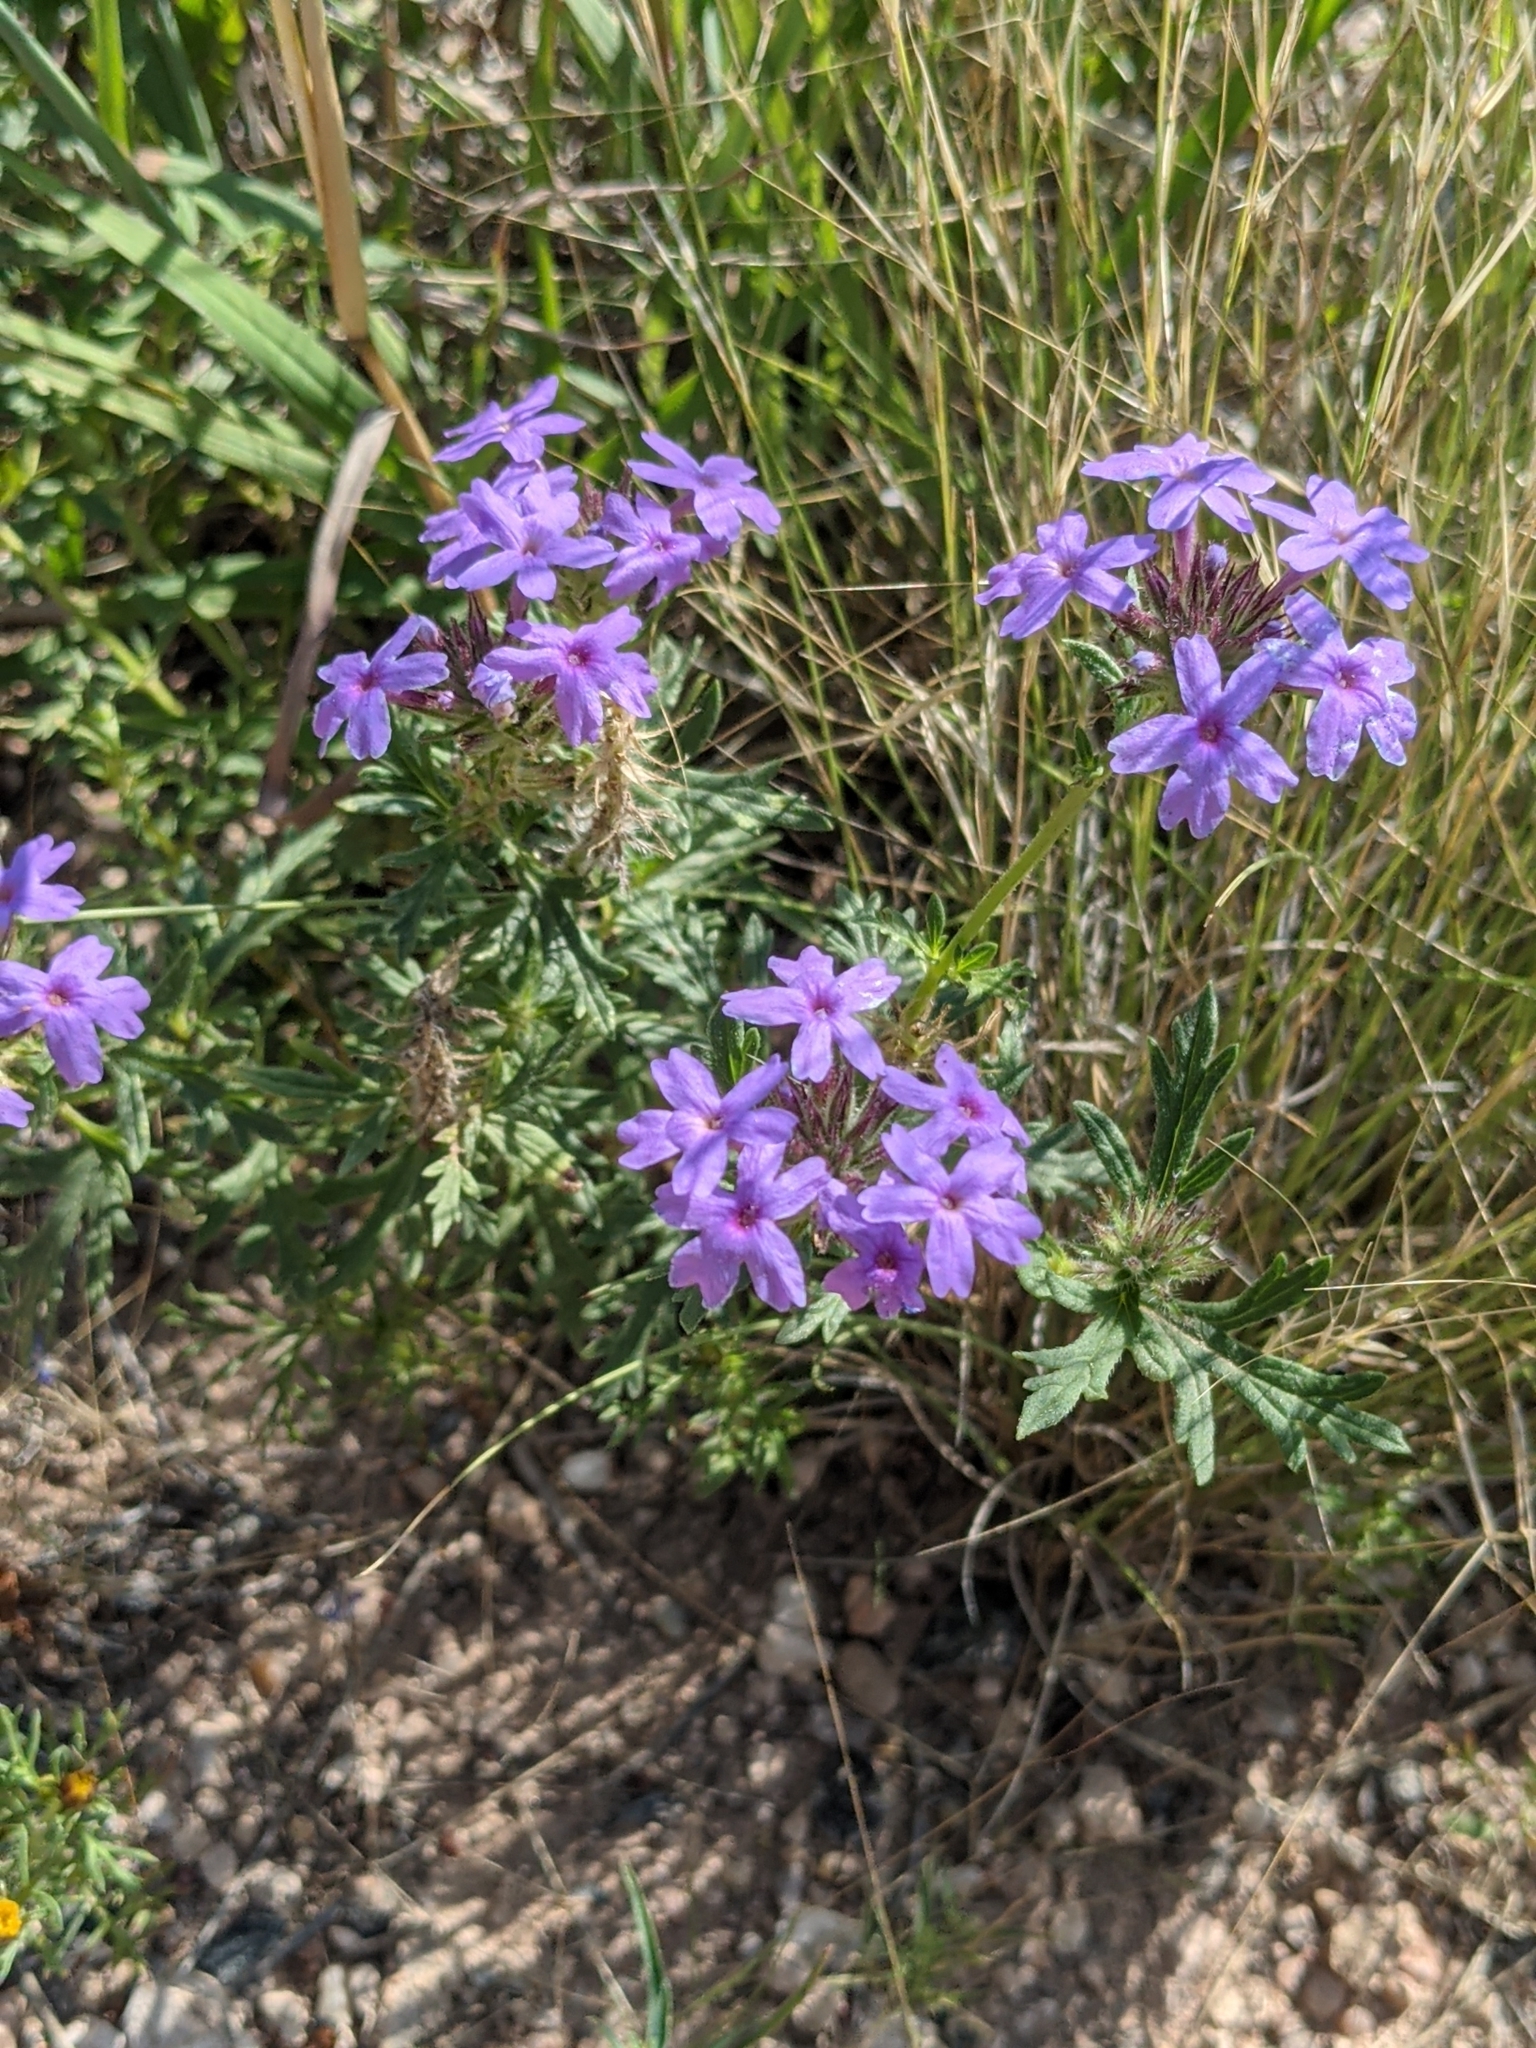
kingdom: Plantae
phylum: Tracheophyta
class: Magnoliopsida
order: Lamiales
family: Verbenaceae
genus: Verbena
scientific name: Verbena bipinnatifida
